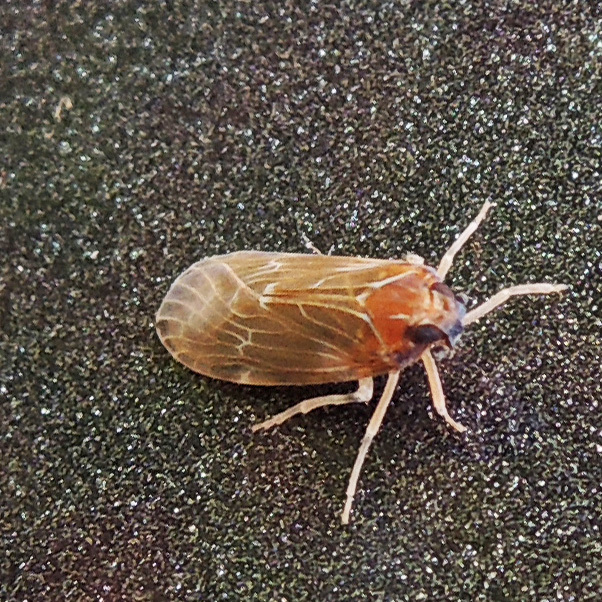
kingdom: Animalia
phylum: Arthropoda
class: Insecta
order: Hemiptera
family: Achilidae
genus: Synecdoche
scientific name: Synecdoche dimidiata
